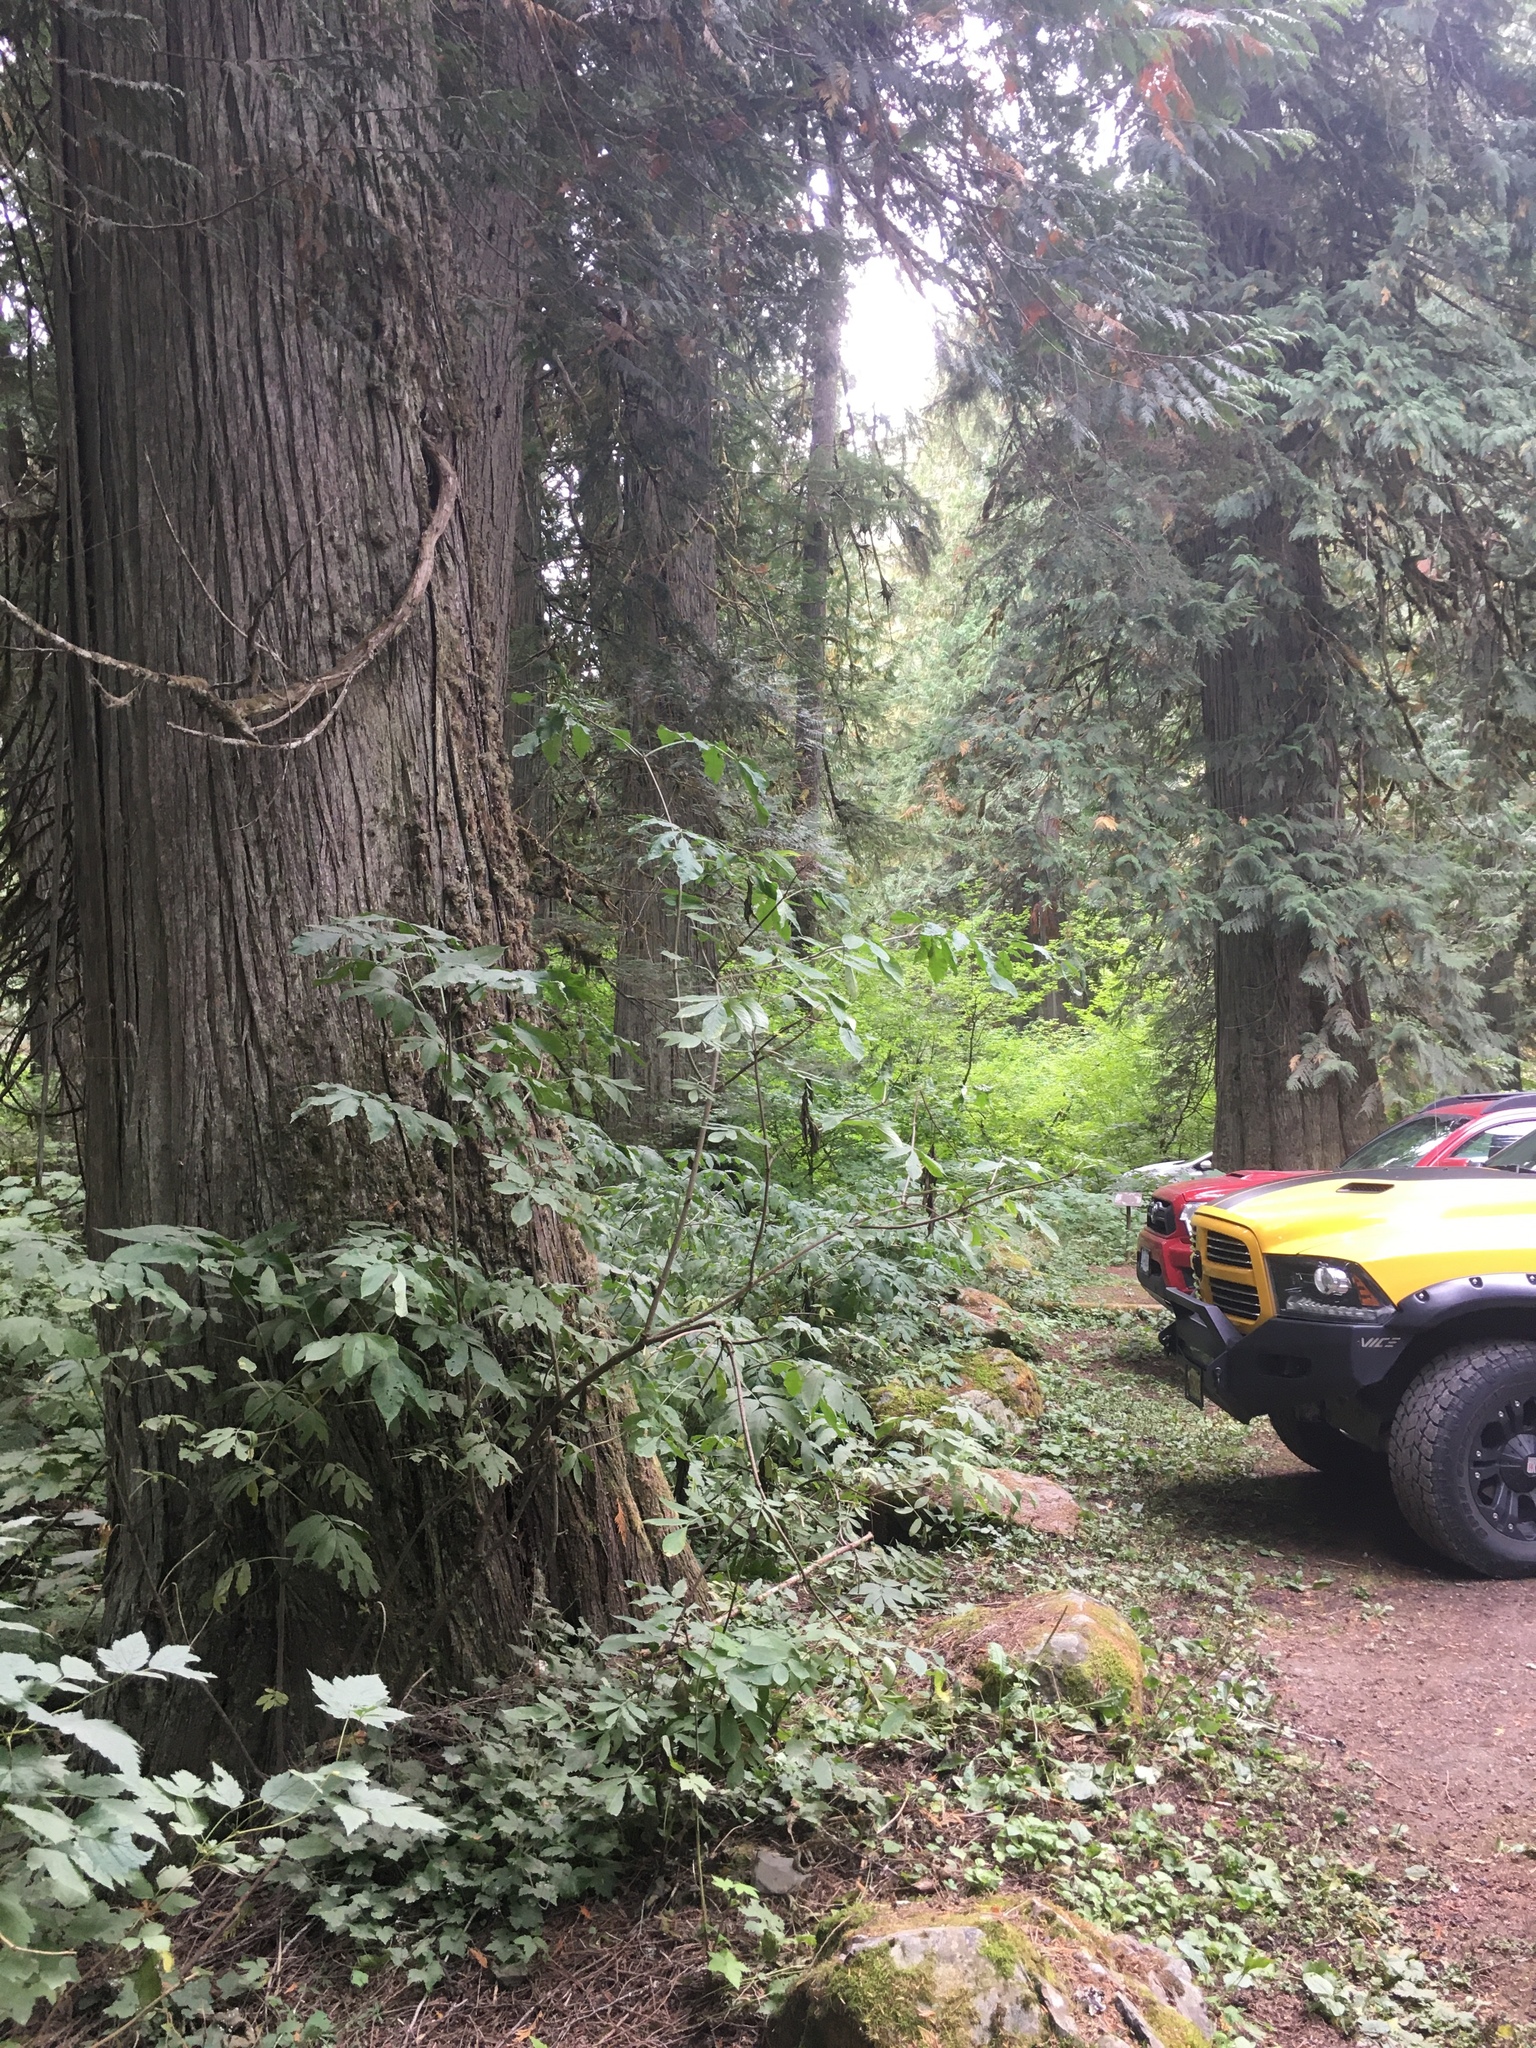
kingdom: Plantae
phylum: Tracheophyta
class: Pinopsida
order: Pinales
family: Cupressaceae
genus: Thuja
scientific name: Thuja plicata
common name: Western red-cedar
